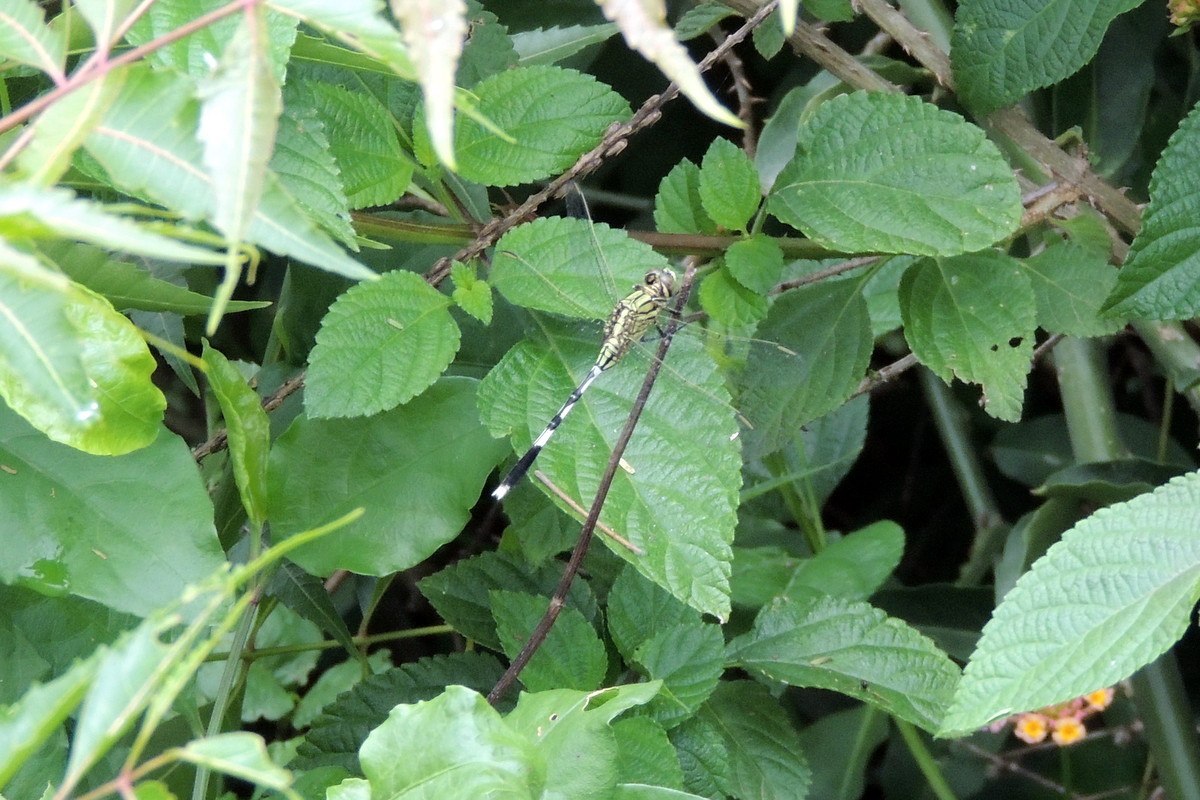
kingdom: Animalia
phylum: Arthropoda
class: Insecta
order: Odonata
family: Libellulidae
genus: Orthetrum
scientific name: Orthetrum sabina
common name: Slender skimmer
